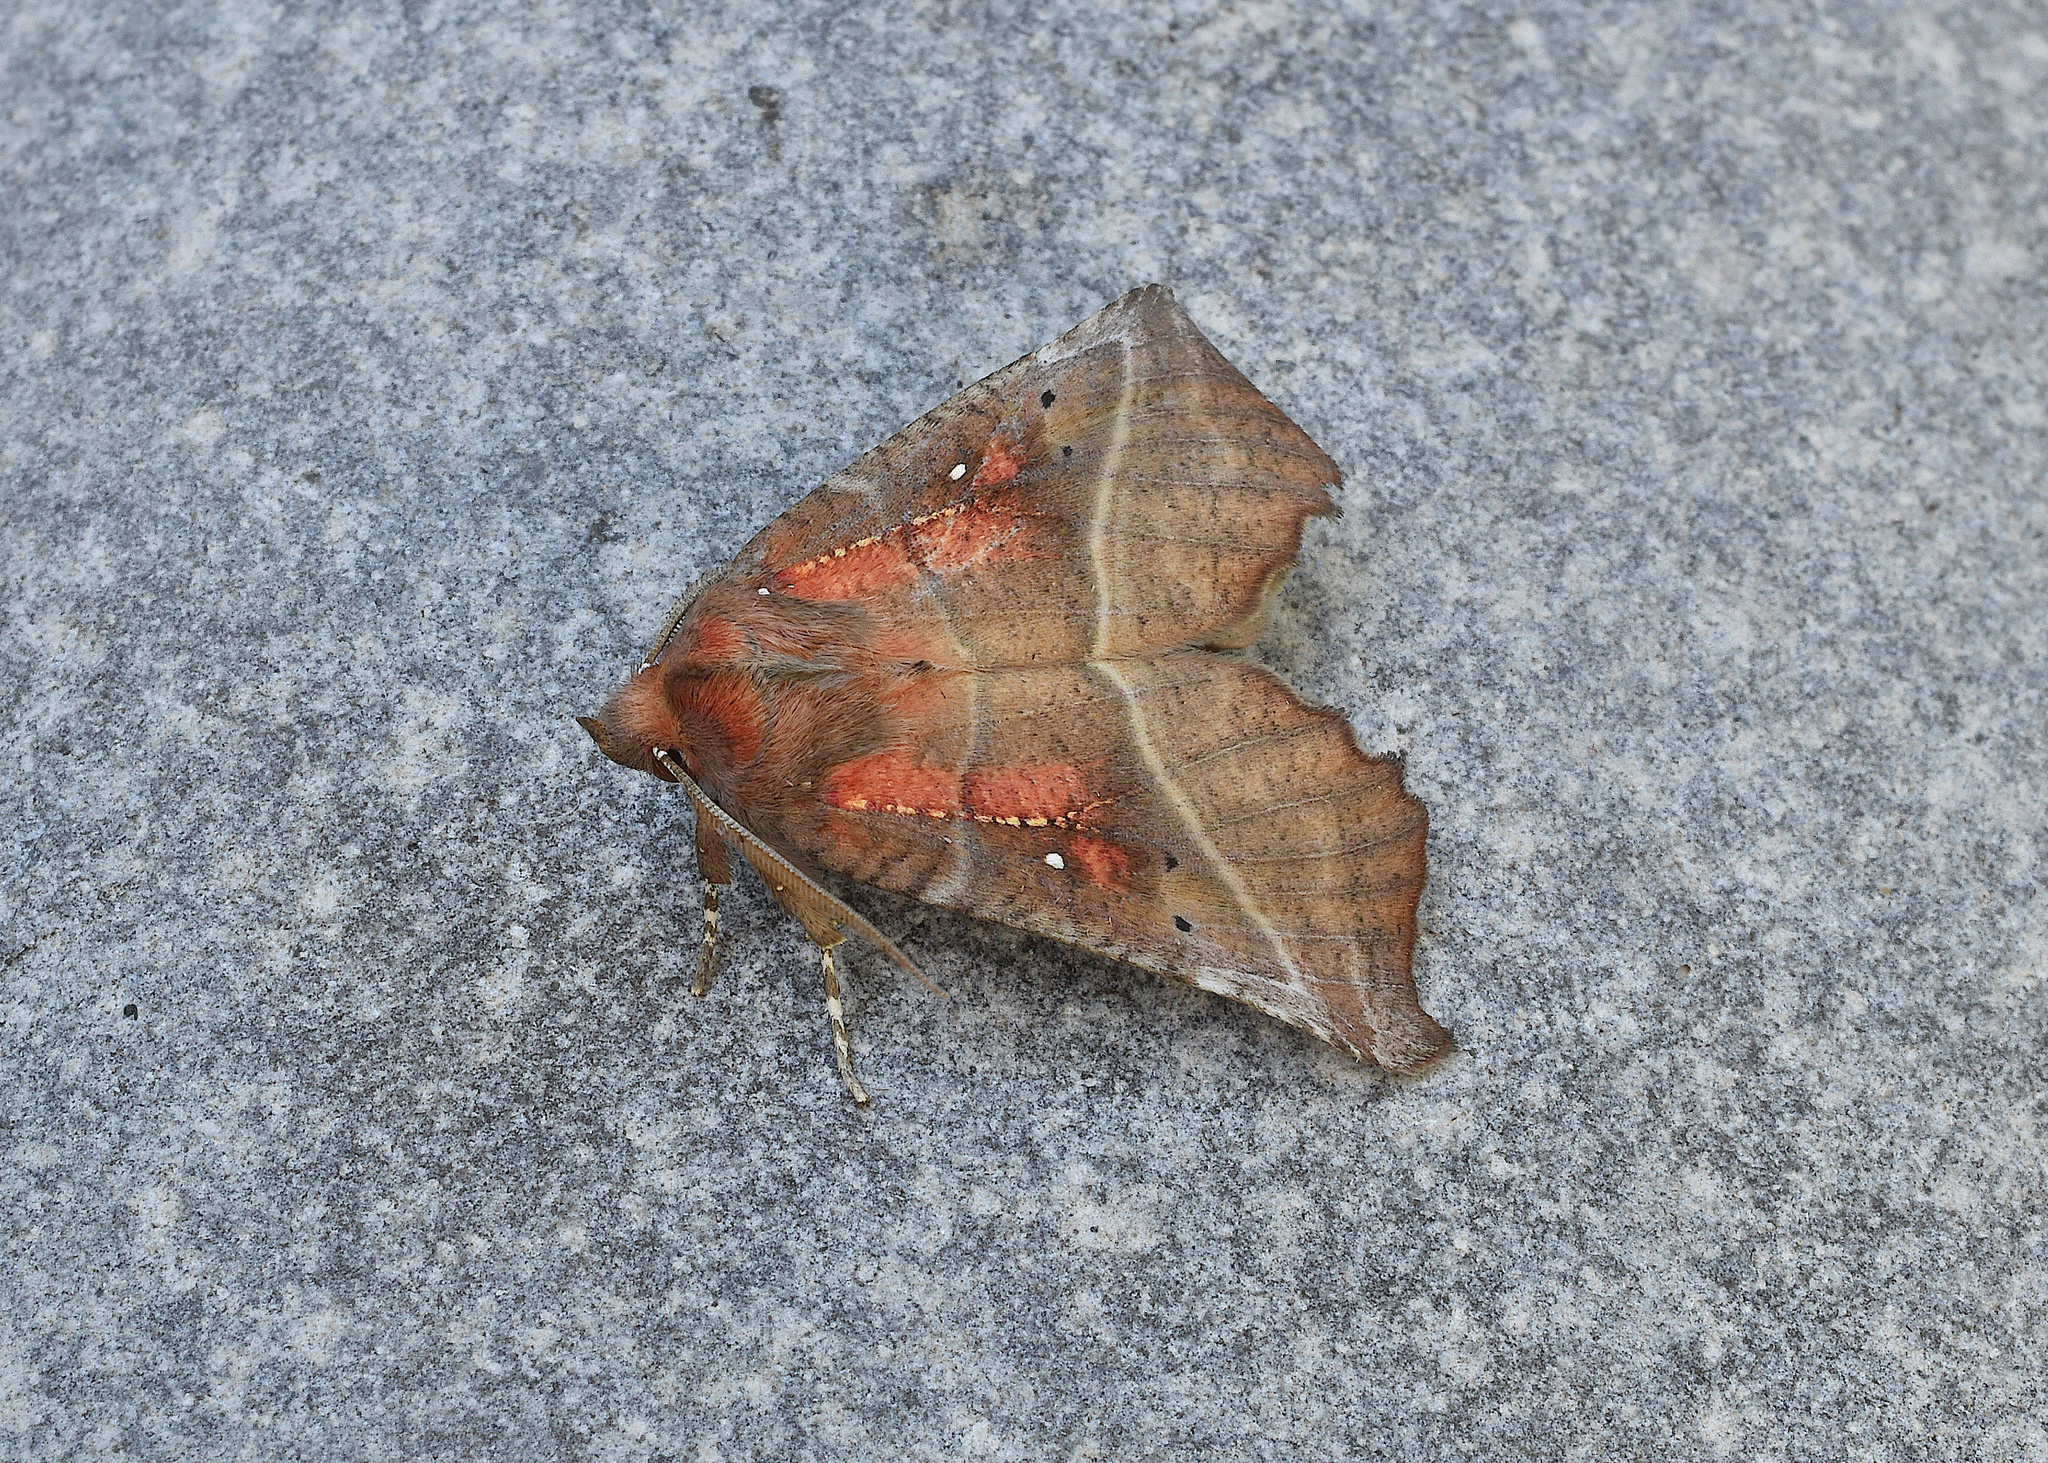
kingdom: Animalia
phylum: Arthropoda
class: Insecta
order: Lepidoptera
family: Erebidae
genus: Scoliopteryx
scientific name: Scoliopteryx libatrix
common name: Herald
